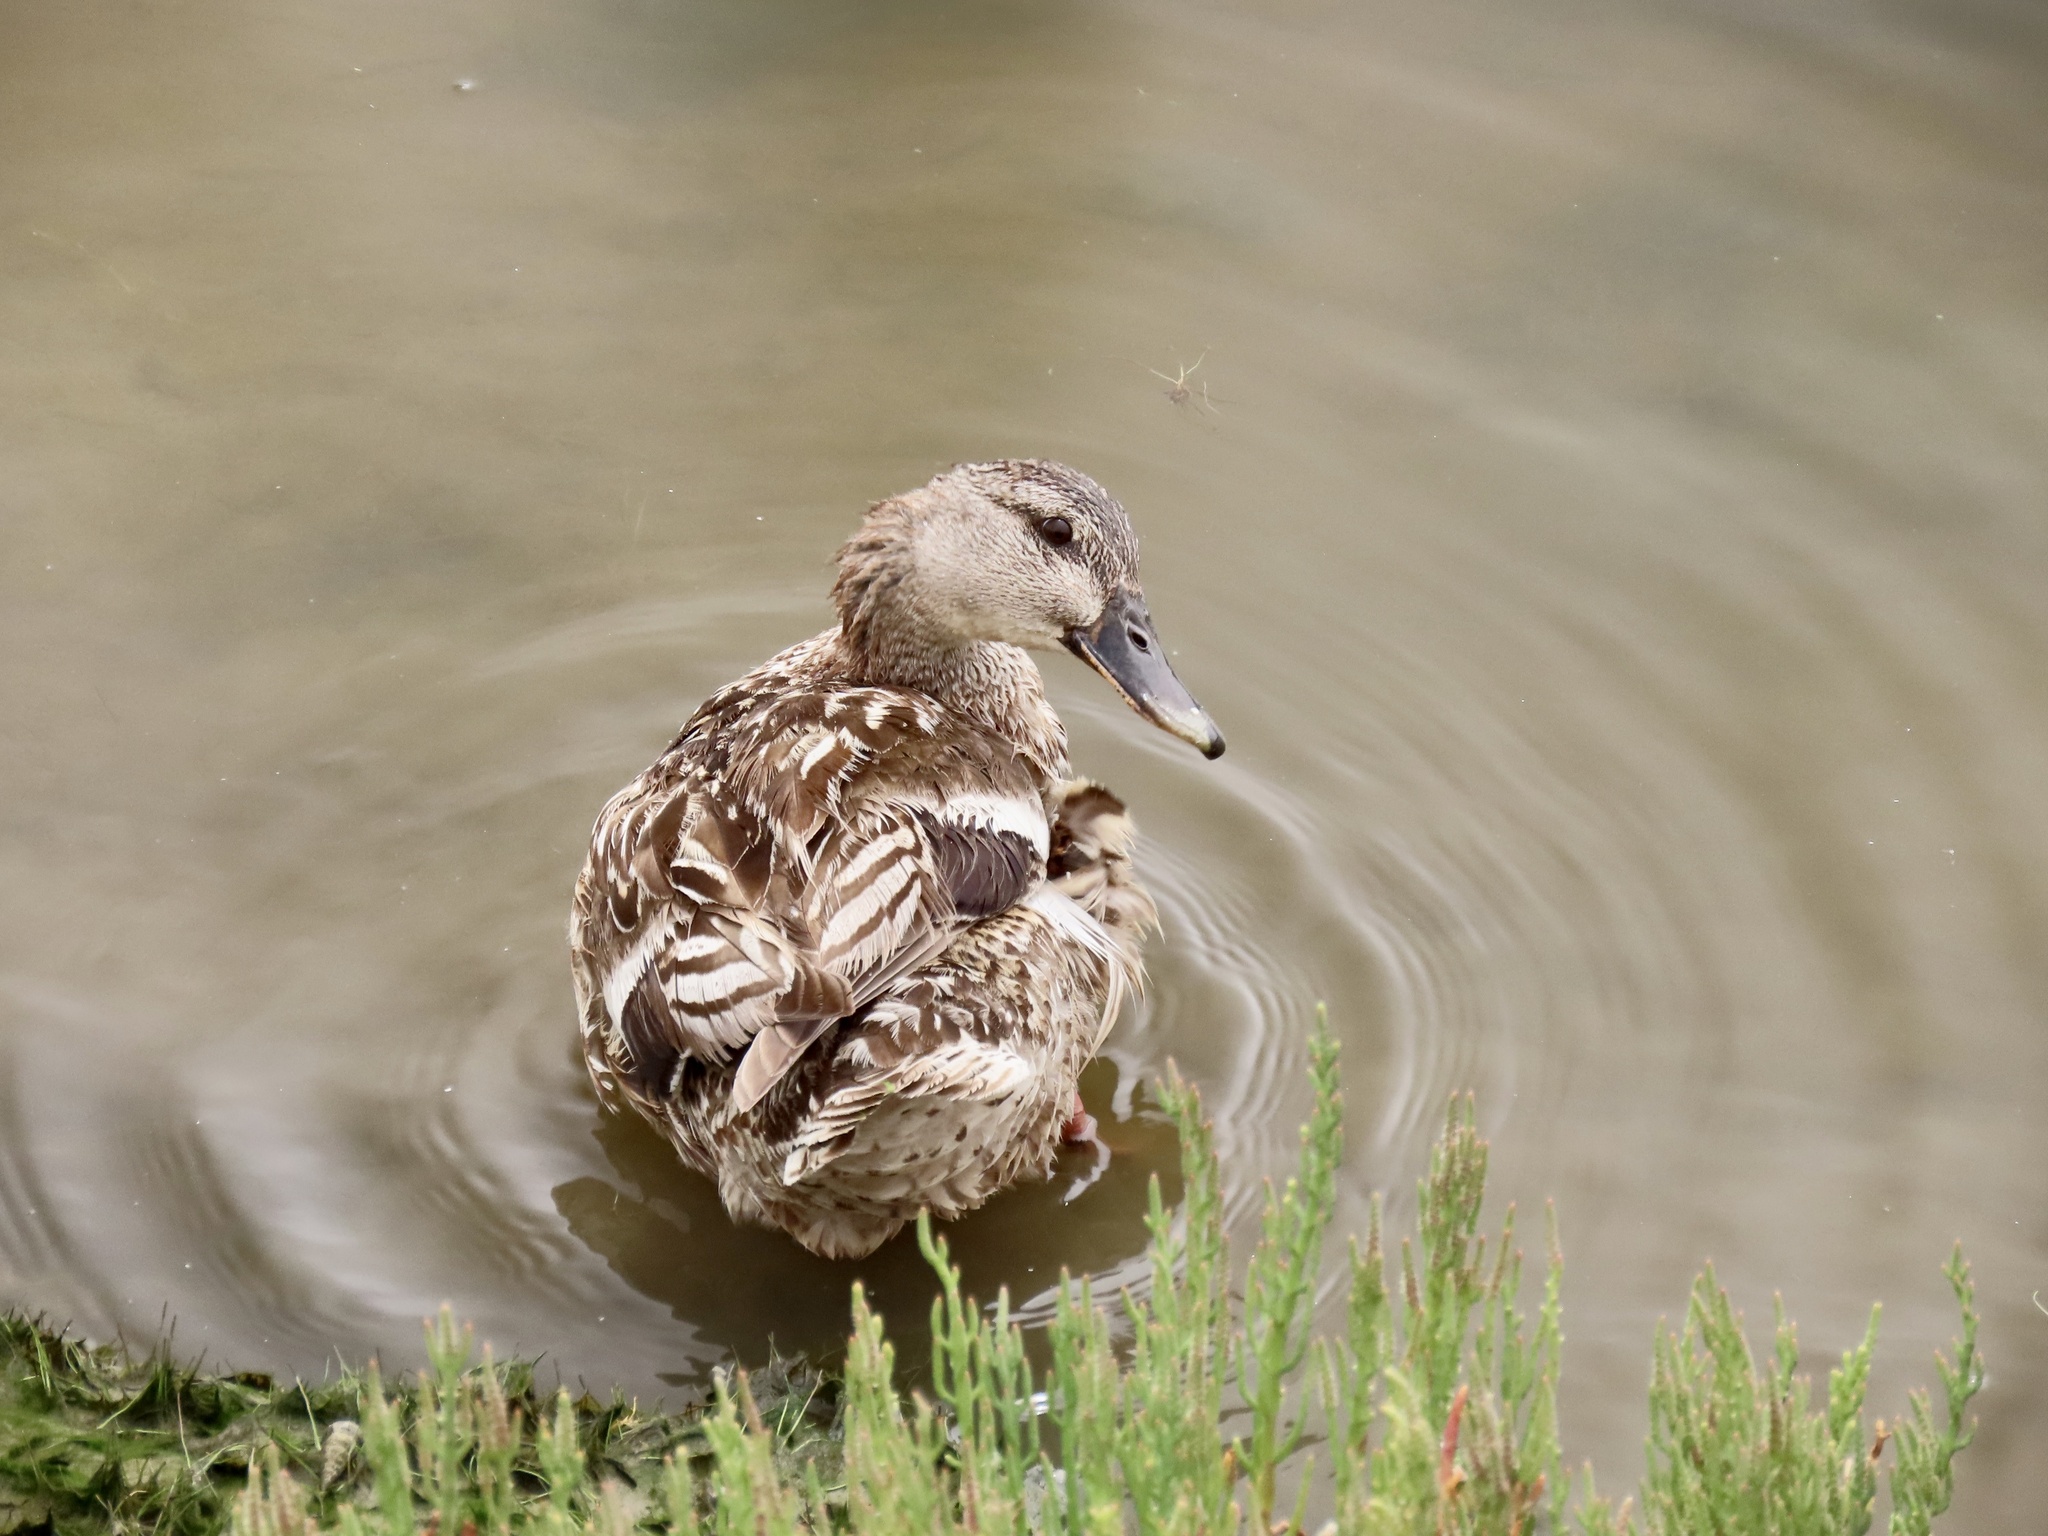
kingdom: Animalia
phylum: Chordata
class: Aves
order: Anseriformes
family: Anatidae
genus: Anas
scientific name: Anas platyrhynchos
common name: Mallard
